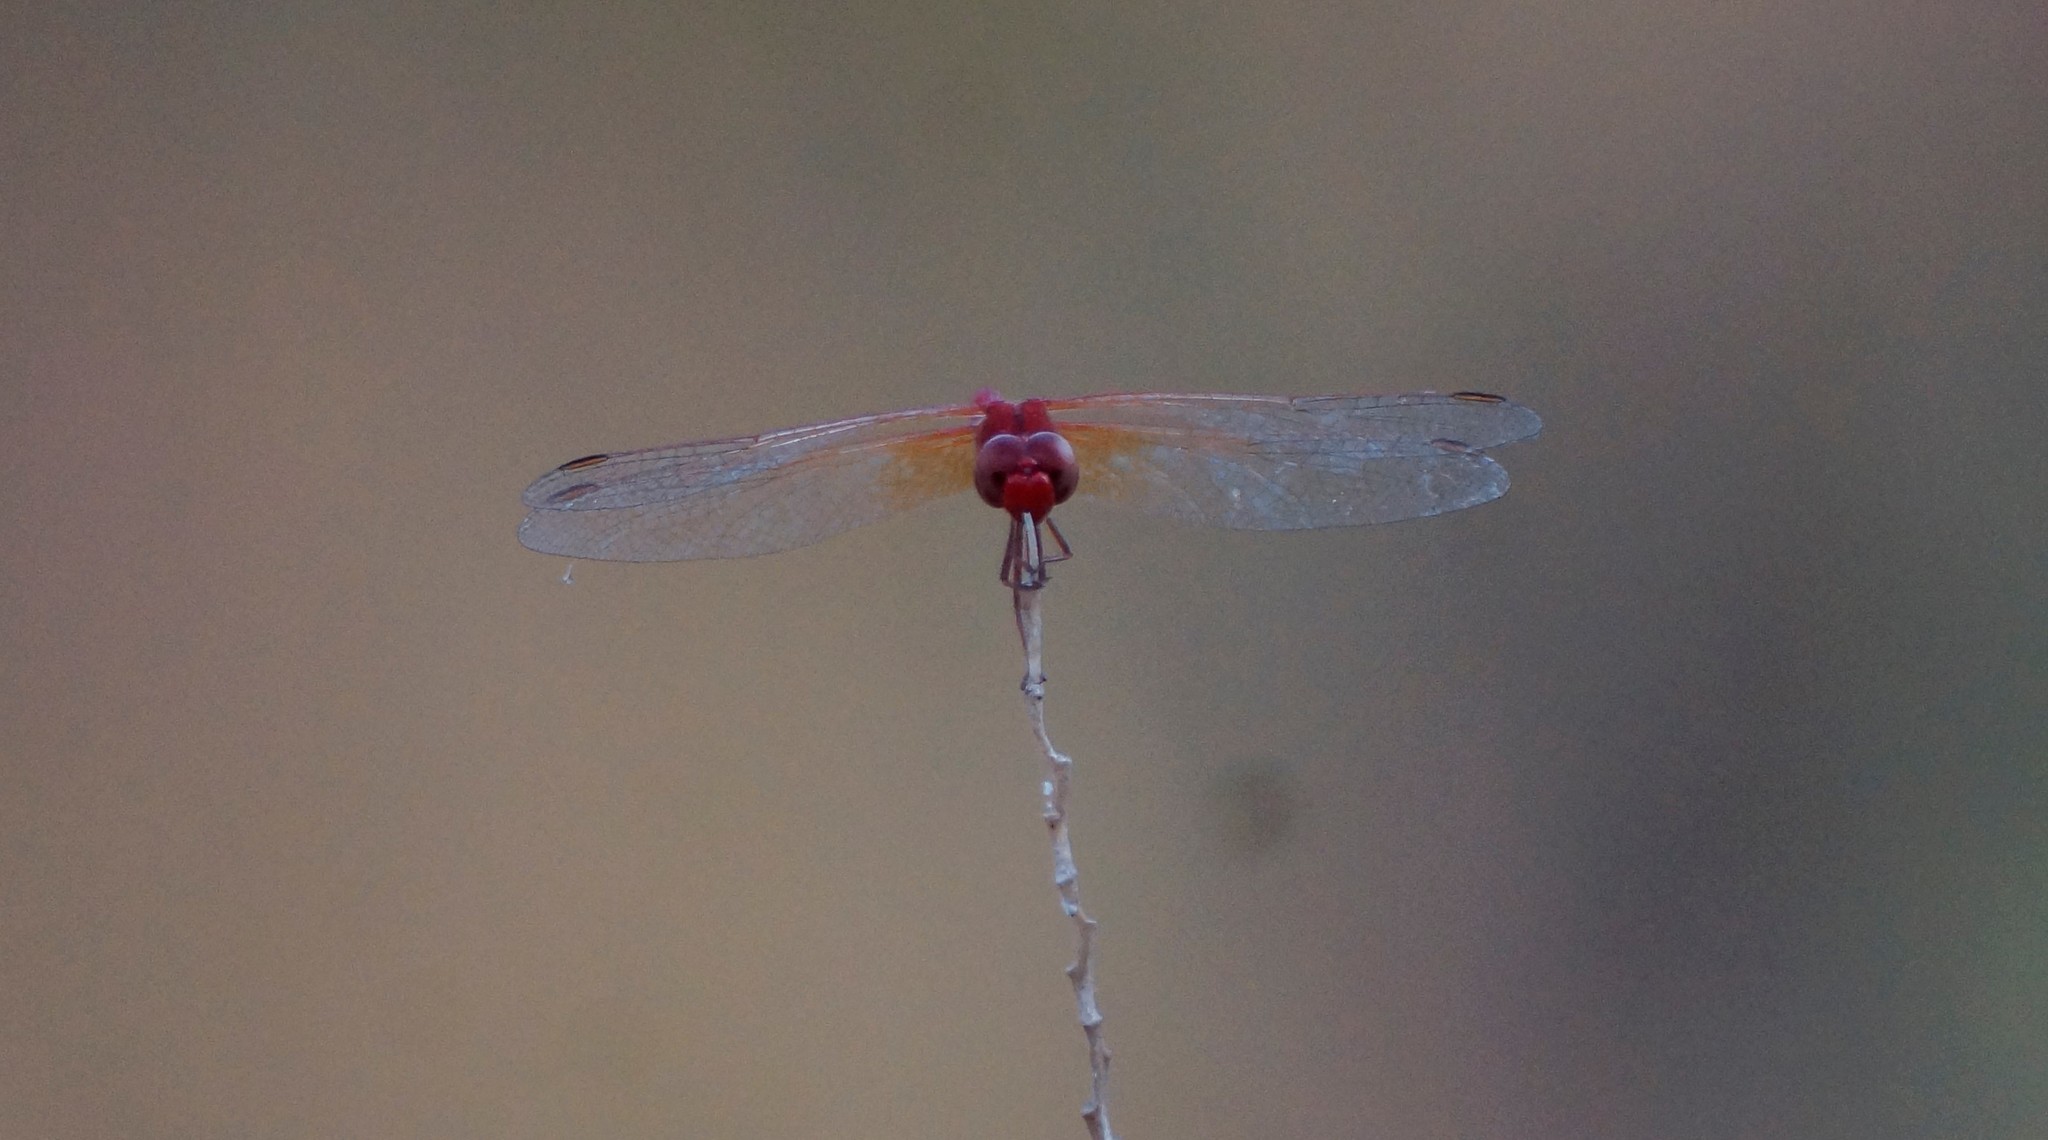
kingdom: Animalia
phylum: Arthropoda
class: Insecta
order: Odonata
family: Libellulidae
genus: Diplacodes
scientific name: Diplacodes haematodes
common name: Scarlet percher
